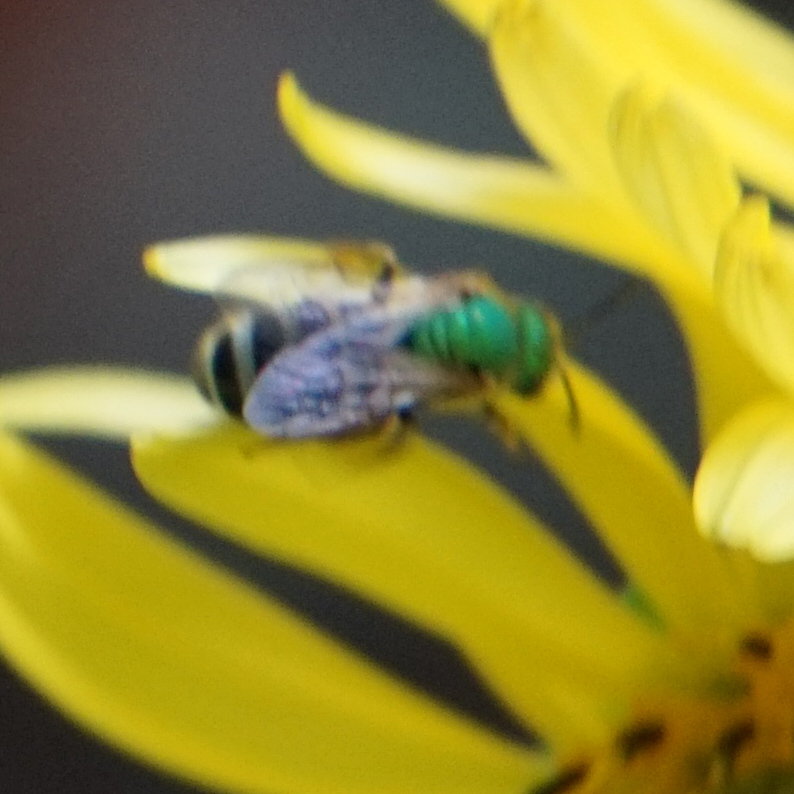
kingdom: Animalia
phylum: Arthropoda
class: Insecta
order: Hymenoptera
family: Halictidae
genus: Agapostemon
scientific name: Agapostemon virescens
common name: Bicolored striped sweat bee
